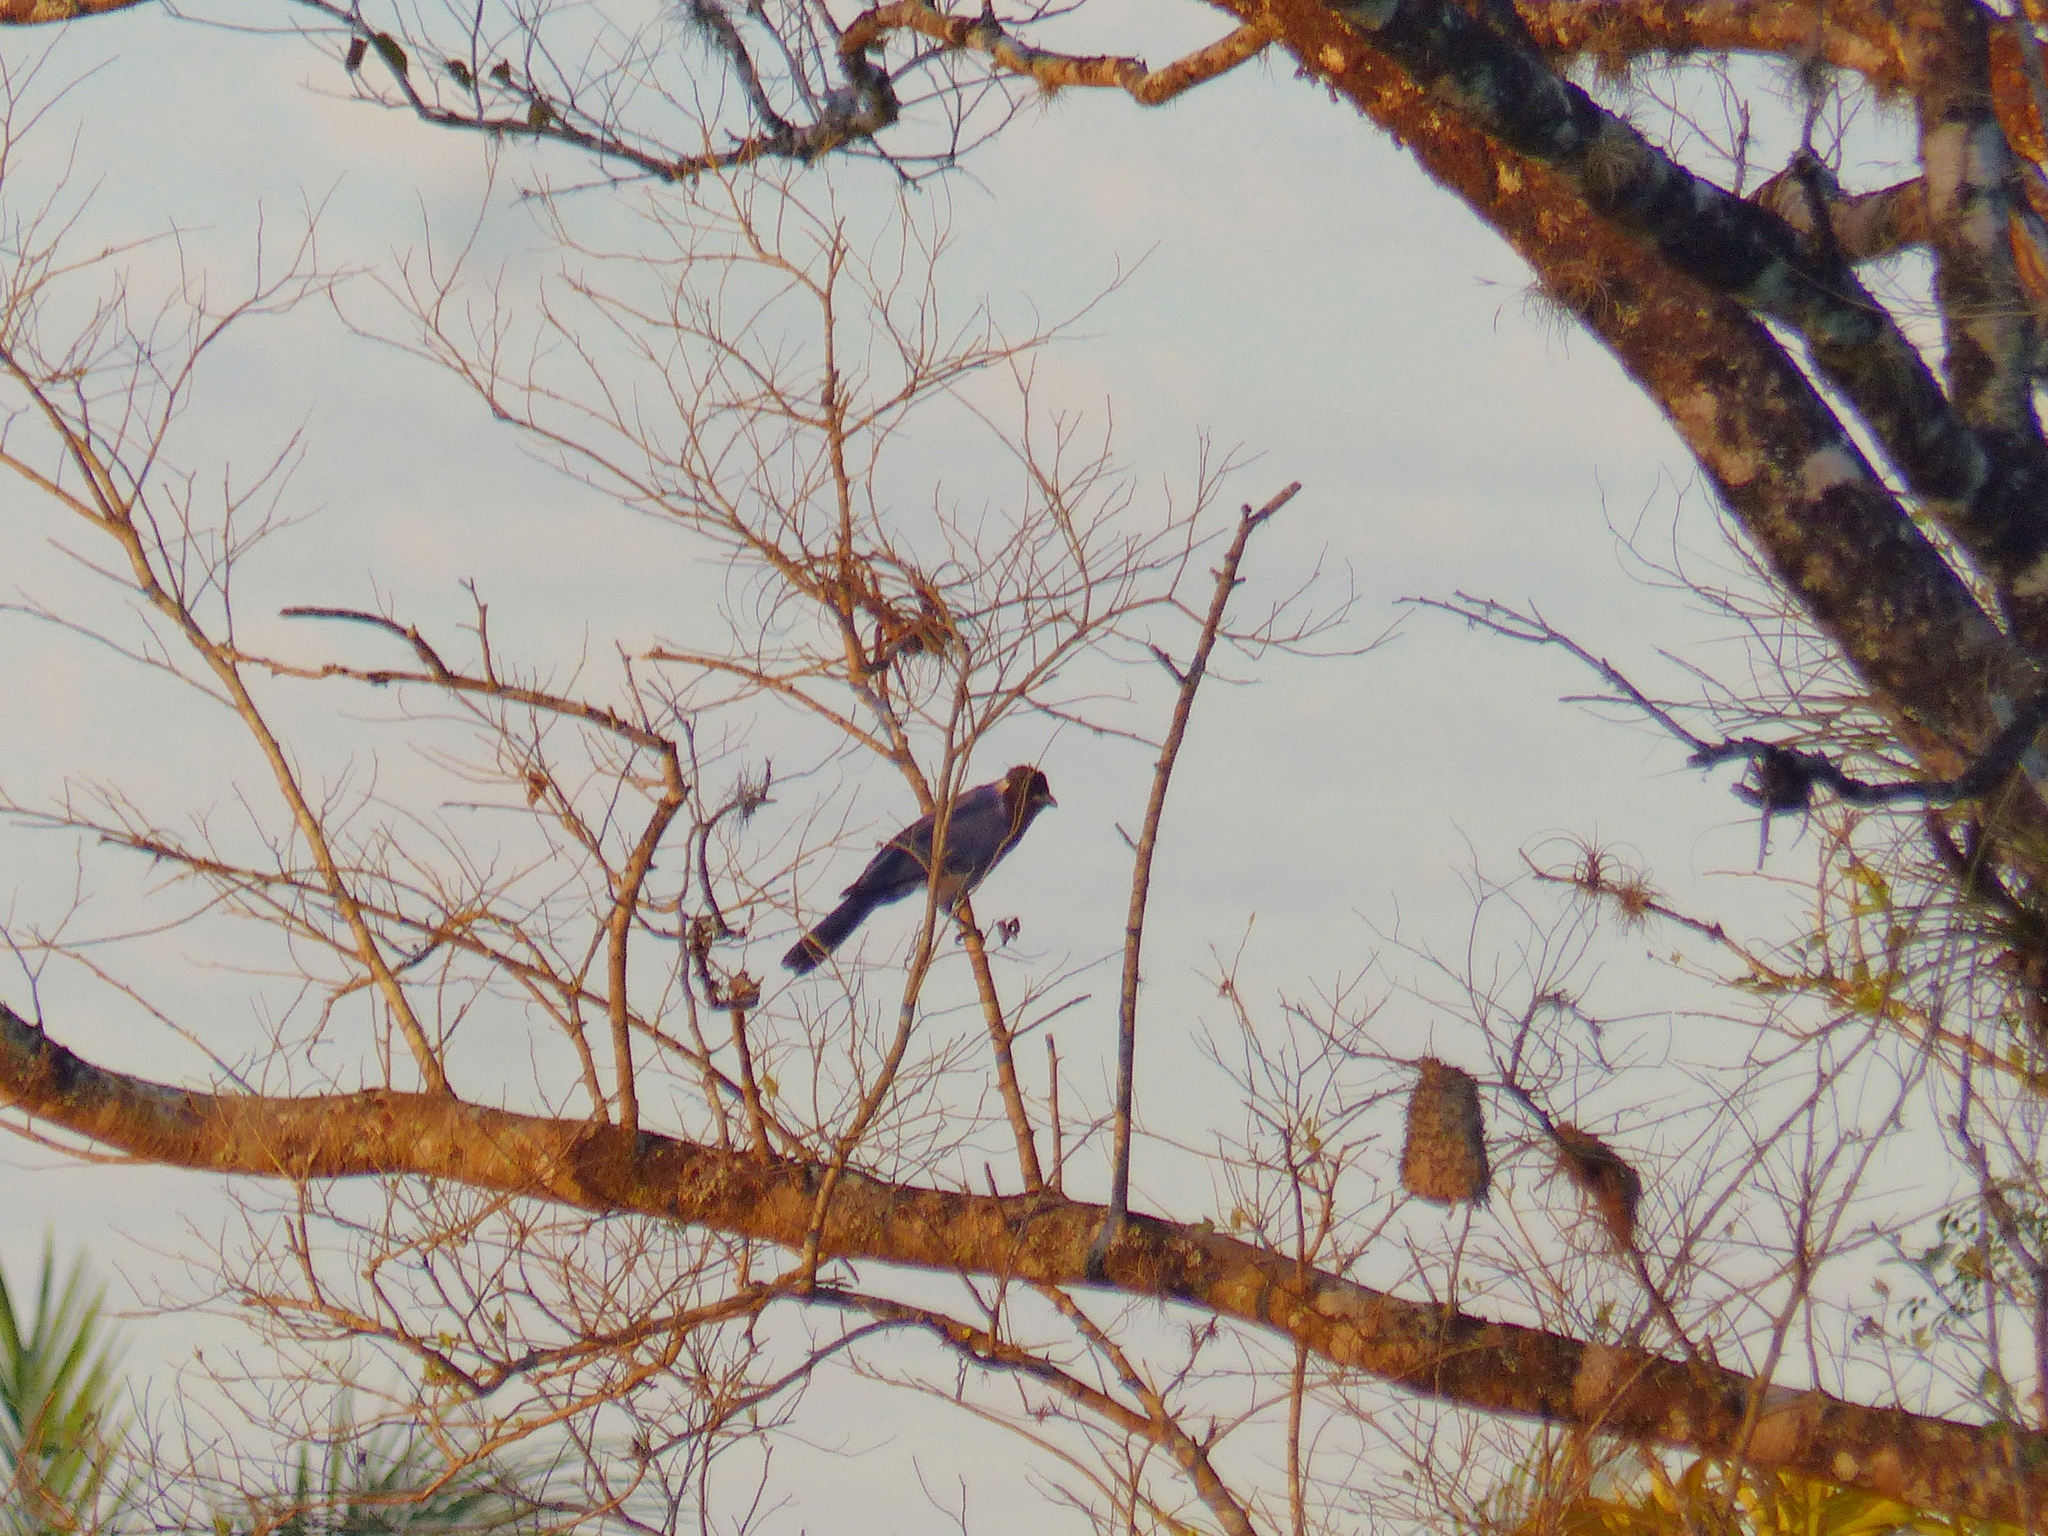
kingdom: Animalia
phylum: Chordata
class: Aves
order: Passeriformes
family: Corvidae
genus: Cyanocorax
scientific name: Cyanocorax violaceus
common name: Violaceous jay
